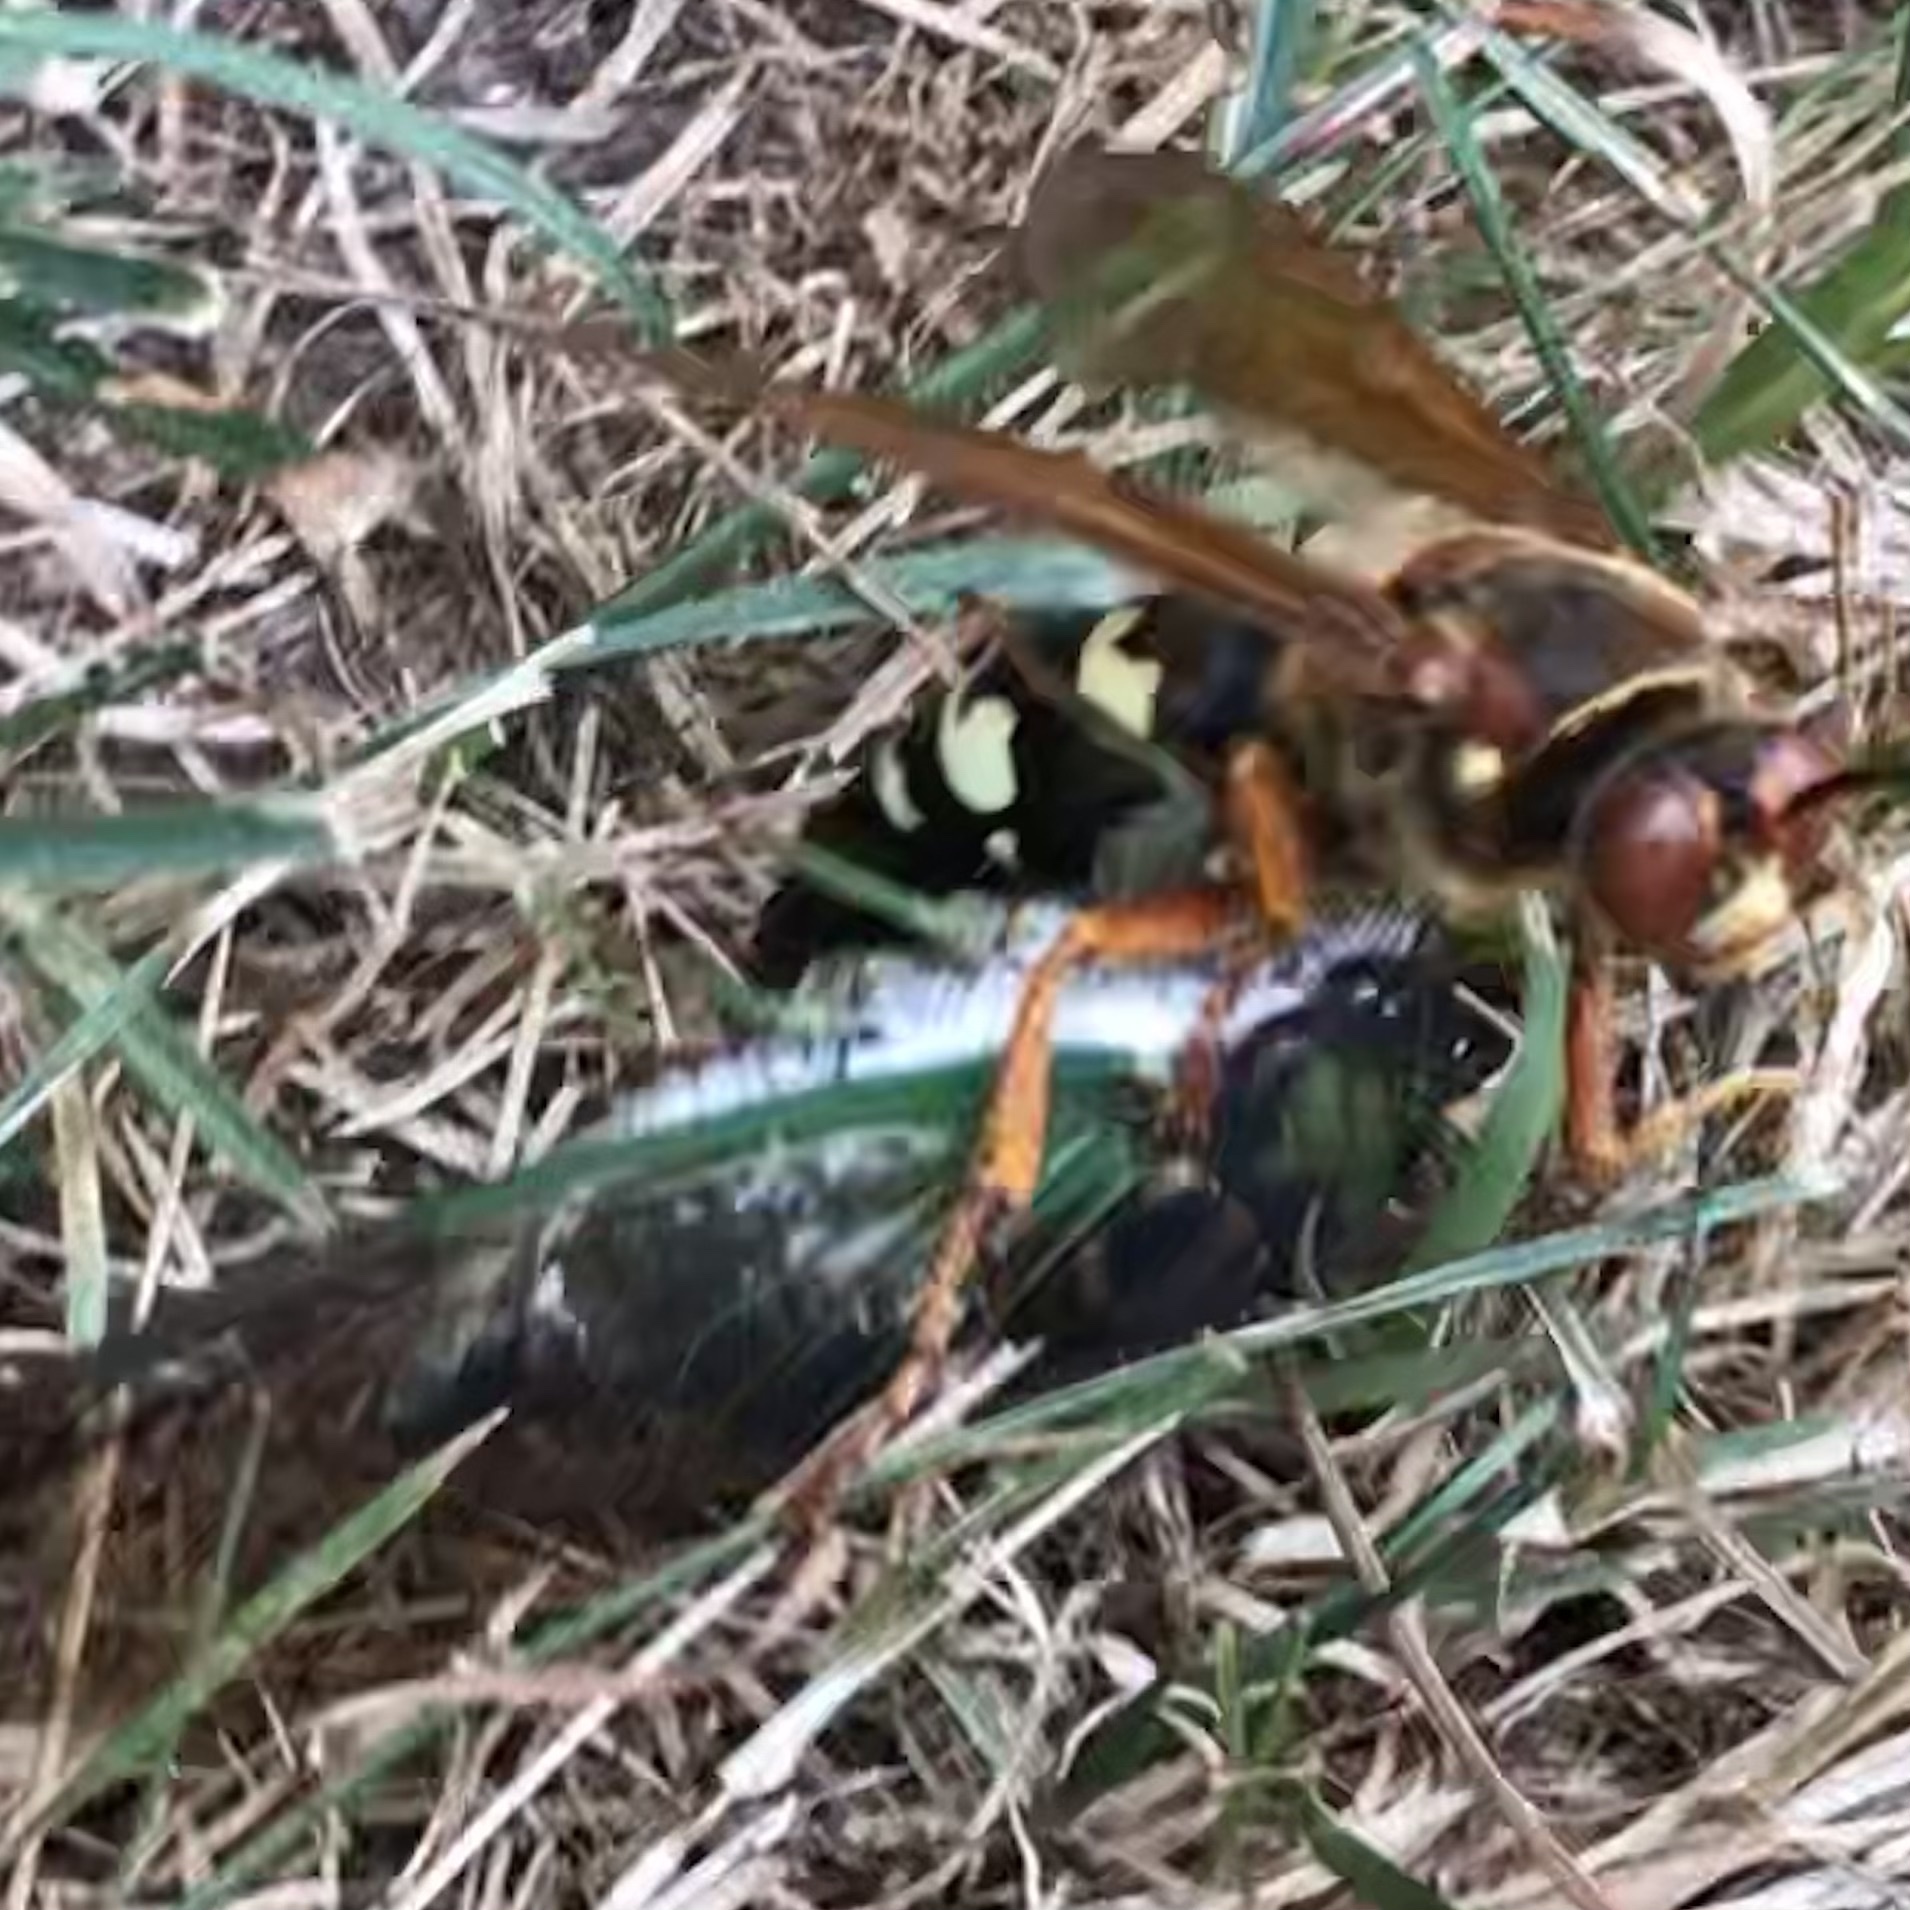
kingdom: Animalia
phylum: Arthropoda
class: Insecta
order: Hemiptera
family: Cicadidae
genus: Neotibicen
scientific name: Neotibicen tibicen
